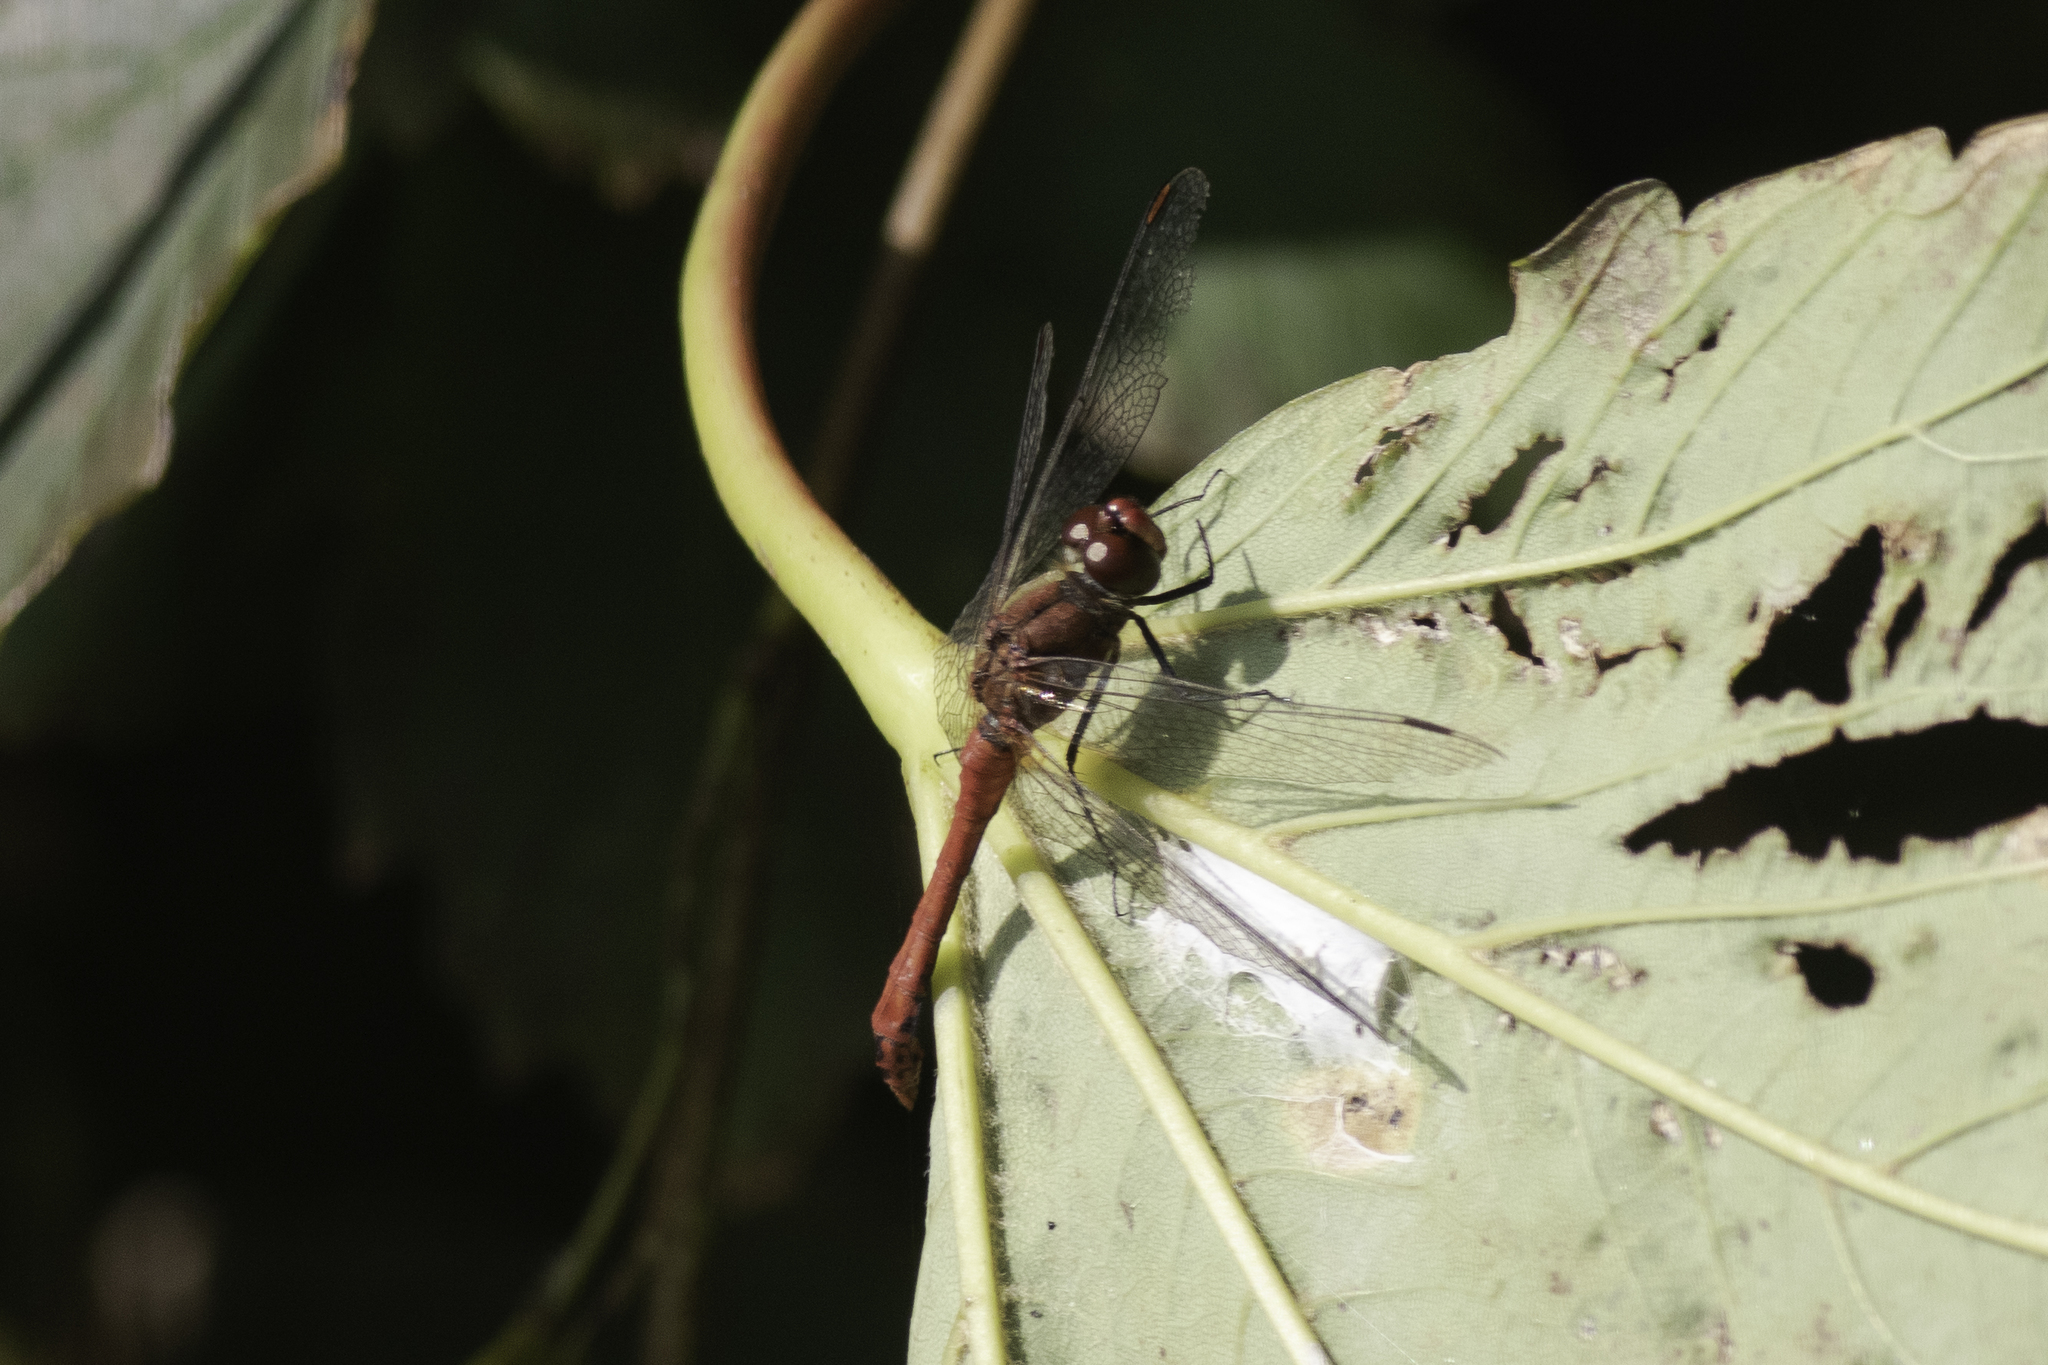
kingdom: Animalia
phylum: Arthropoda
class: Insecta
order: Odonata
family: Libellulidae
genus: Sympetrum
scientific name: Sympetrum sanguineum
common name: Ruddy darter
